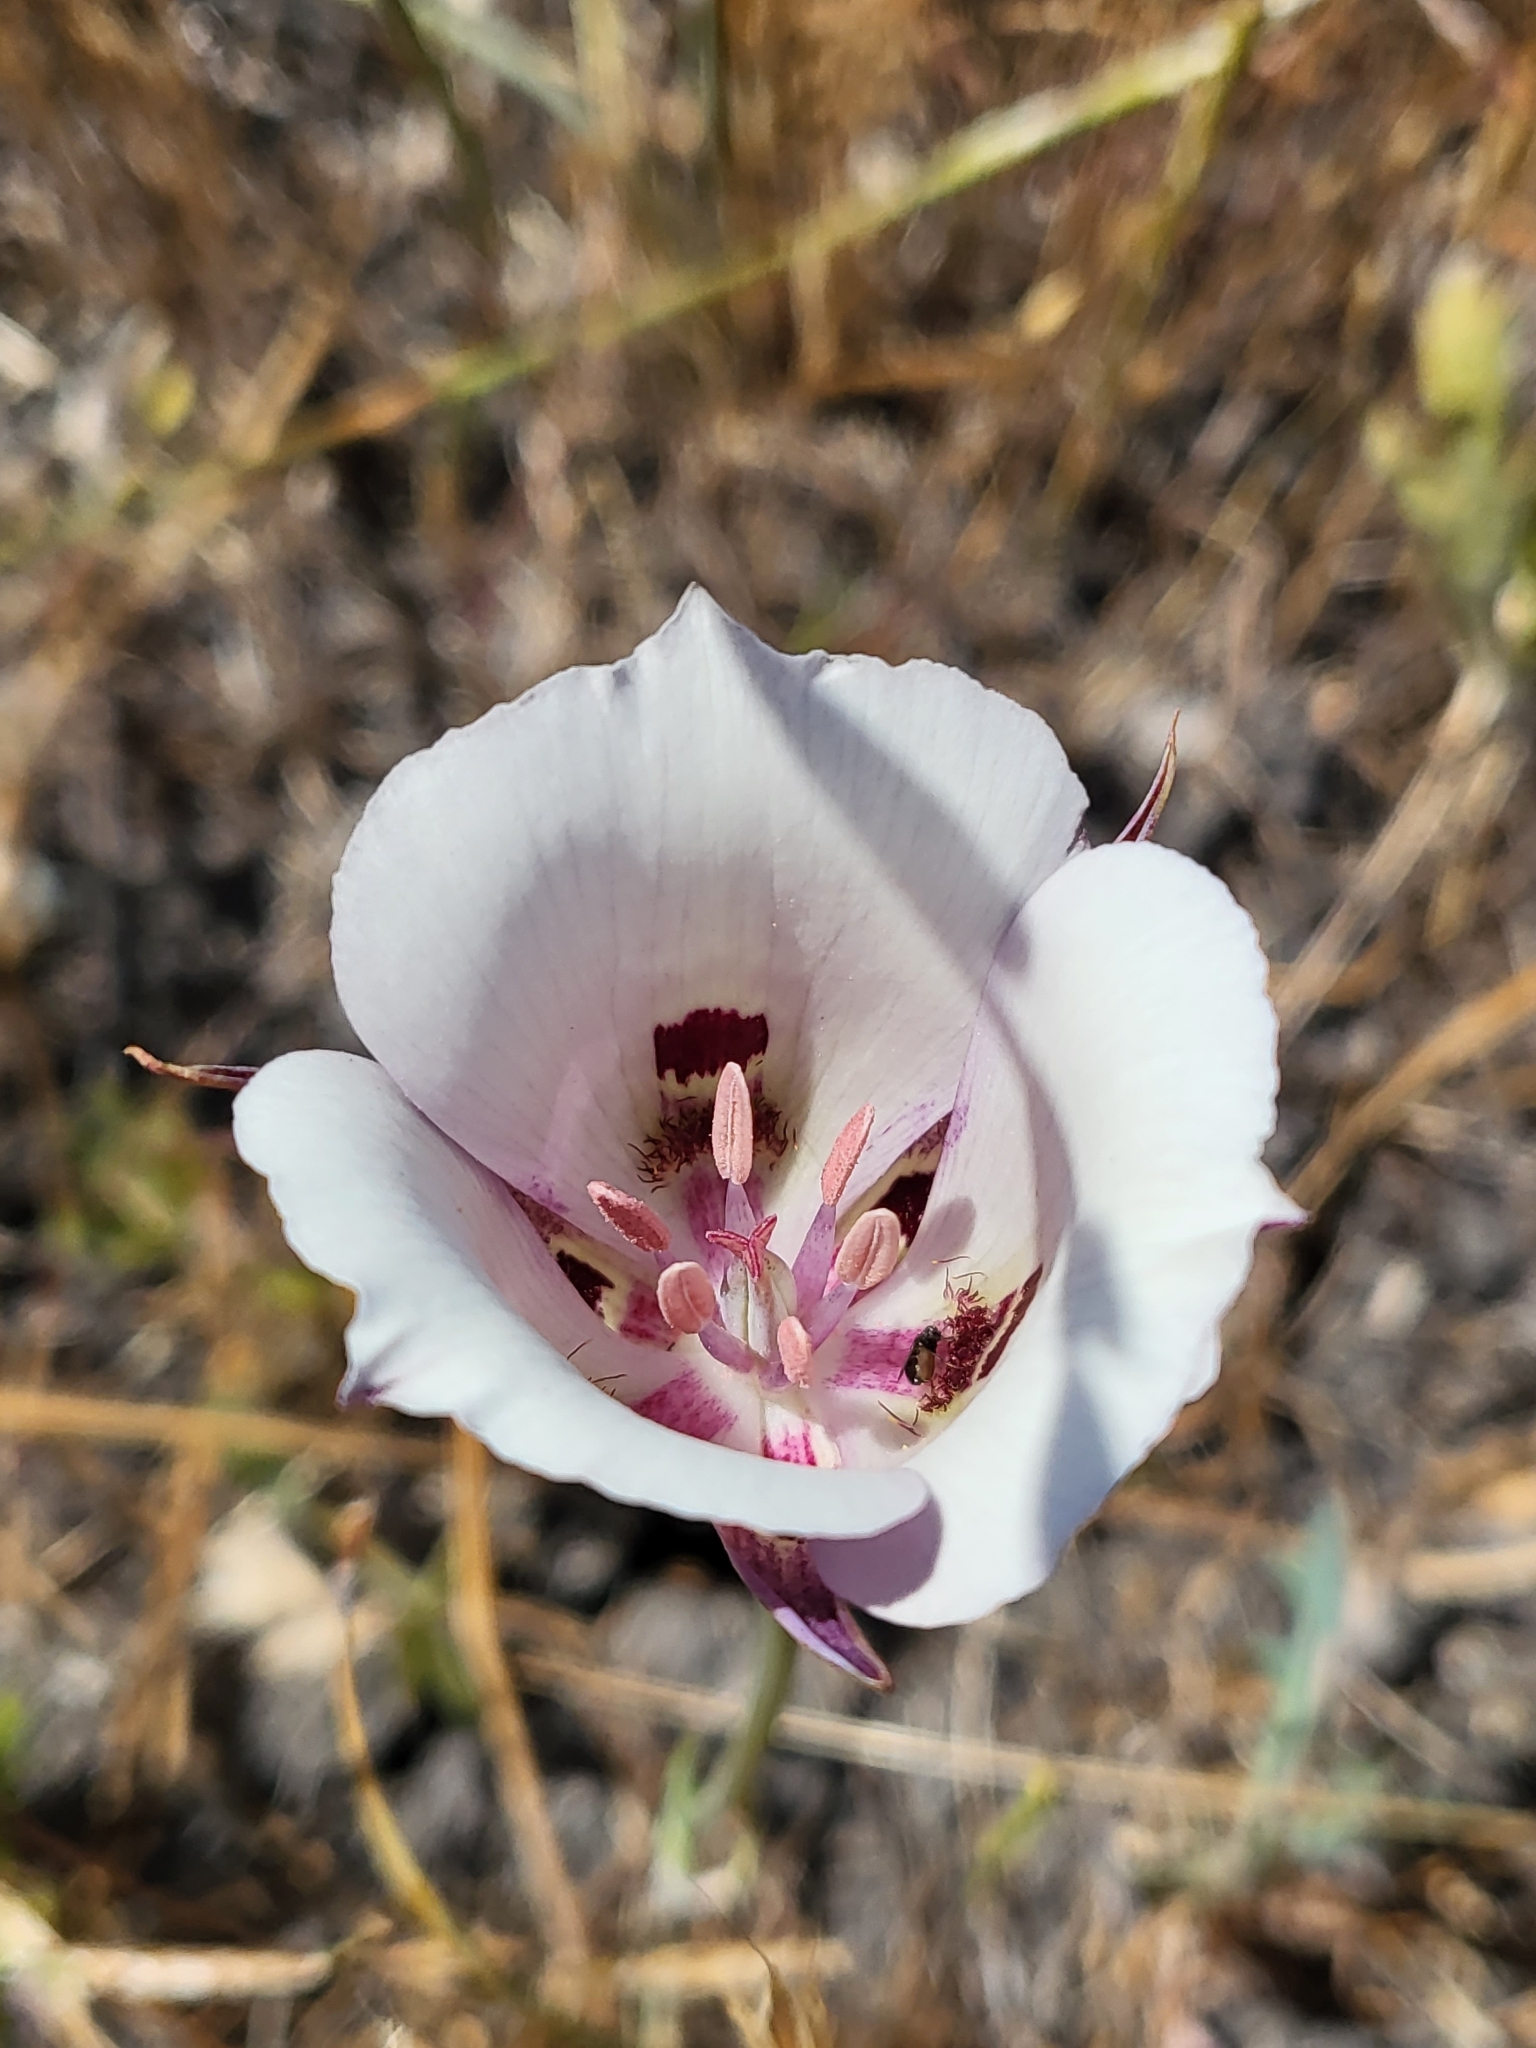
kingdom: Plantae
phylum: Tracheophyta
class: Liliopsida
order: Liliales
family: Liliaceae
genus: Calochortus
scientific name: Calochortus argillosus
